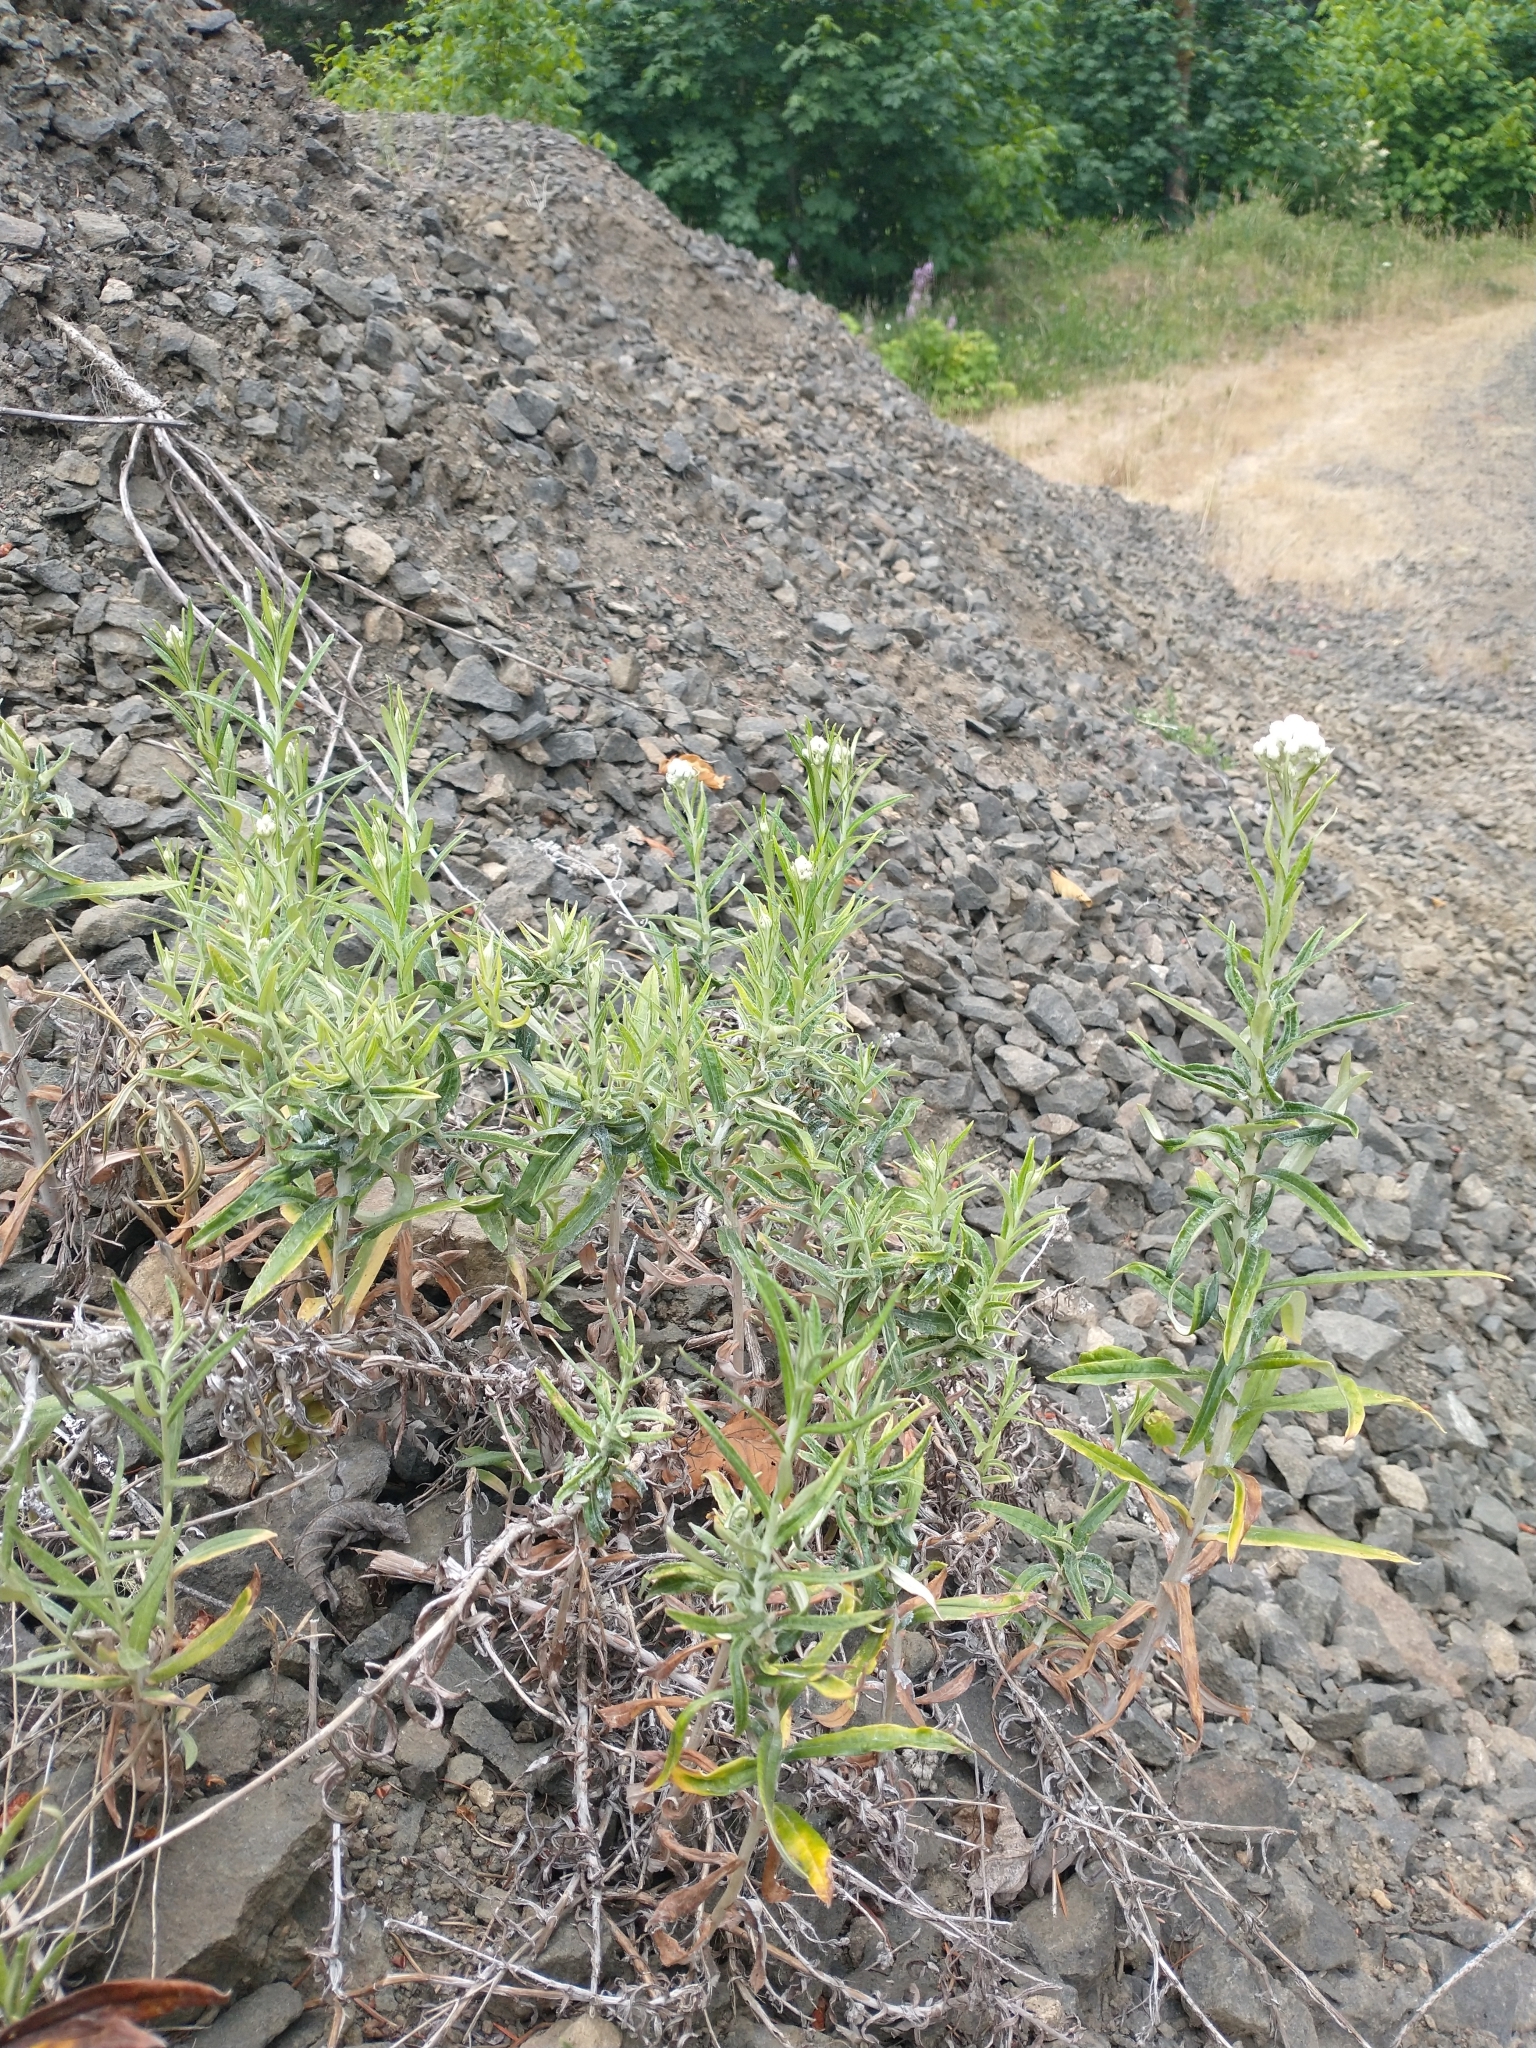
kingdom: Plantae
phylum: Tracheophyta
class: Magnoliopsida
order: Asterales
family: Asteraceae
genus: Anaphalis
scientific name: Anaphalis margaritacea
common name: Pearly everlasting
